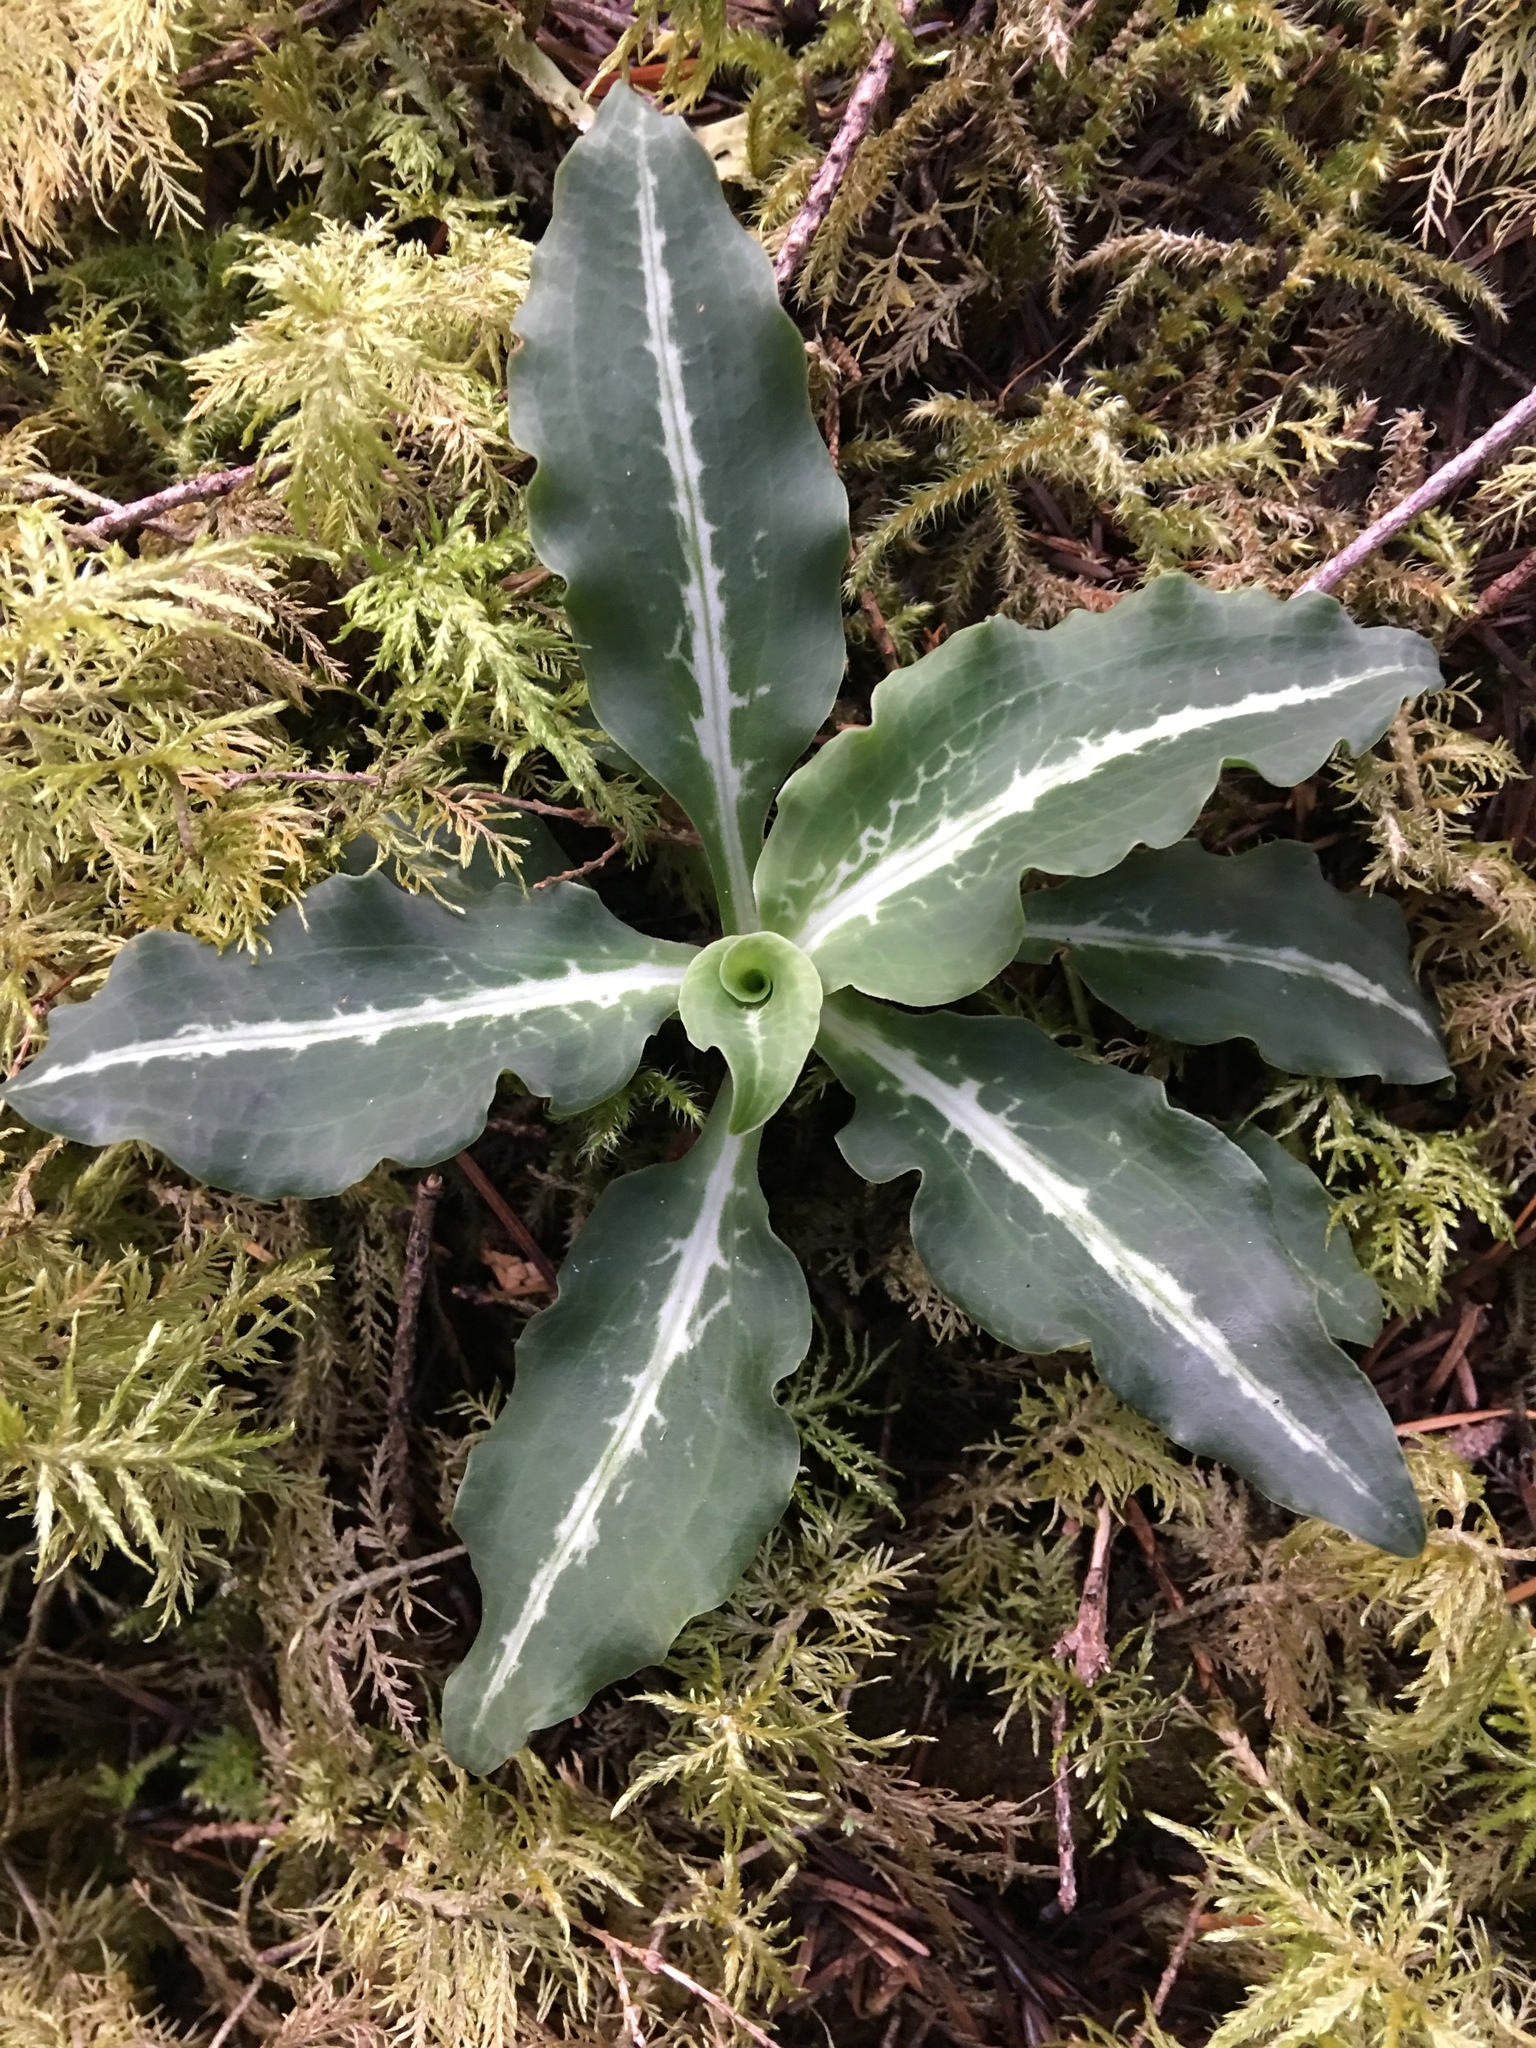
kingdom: Plantae
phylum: Tracheophyta
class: Liliopsida
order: Asparagales
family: Orchidaceae
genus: Goodyera
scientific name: Goodyera oblongifolia
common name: Giant rattlesnake-plantain
